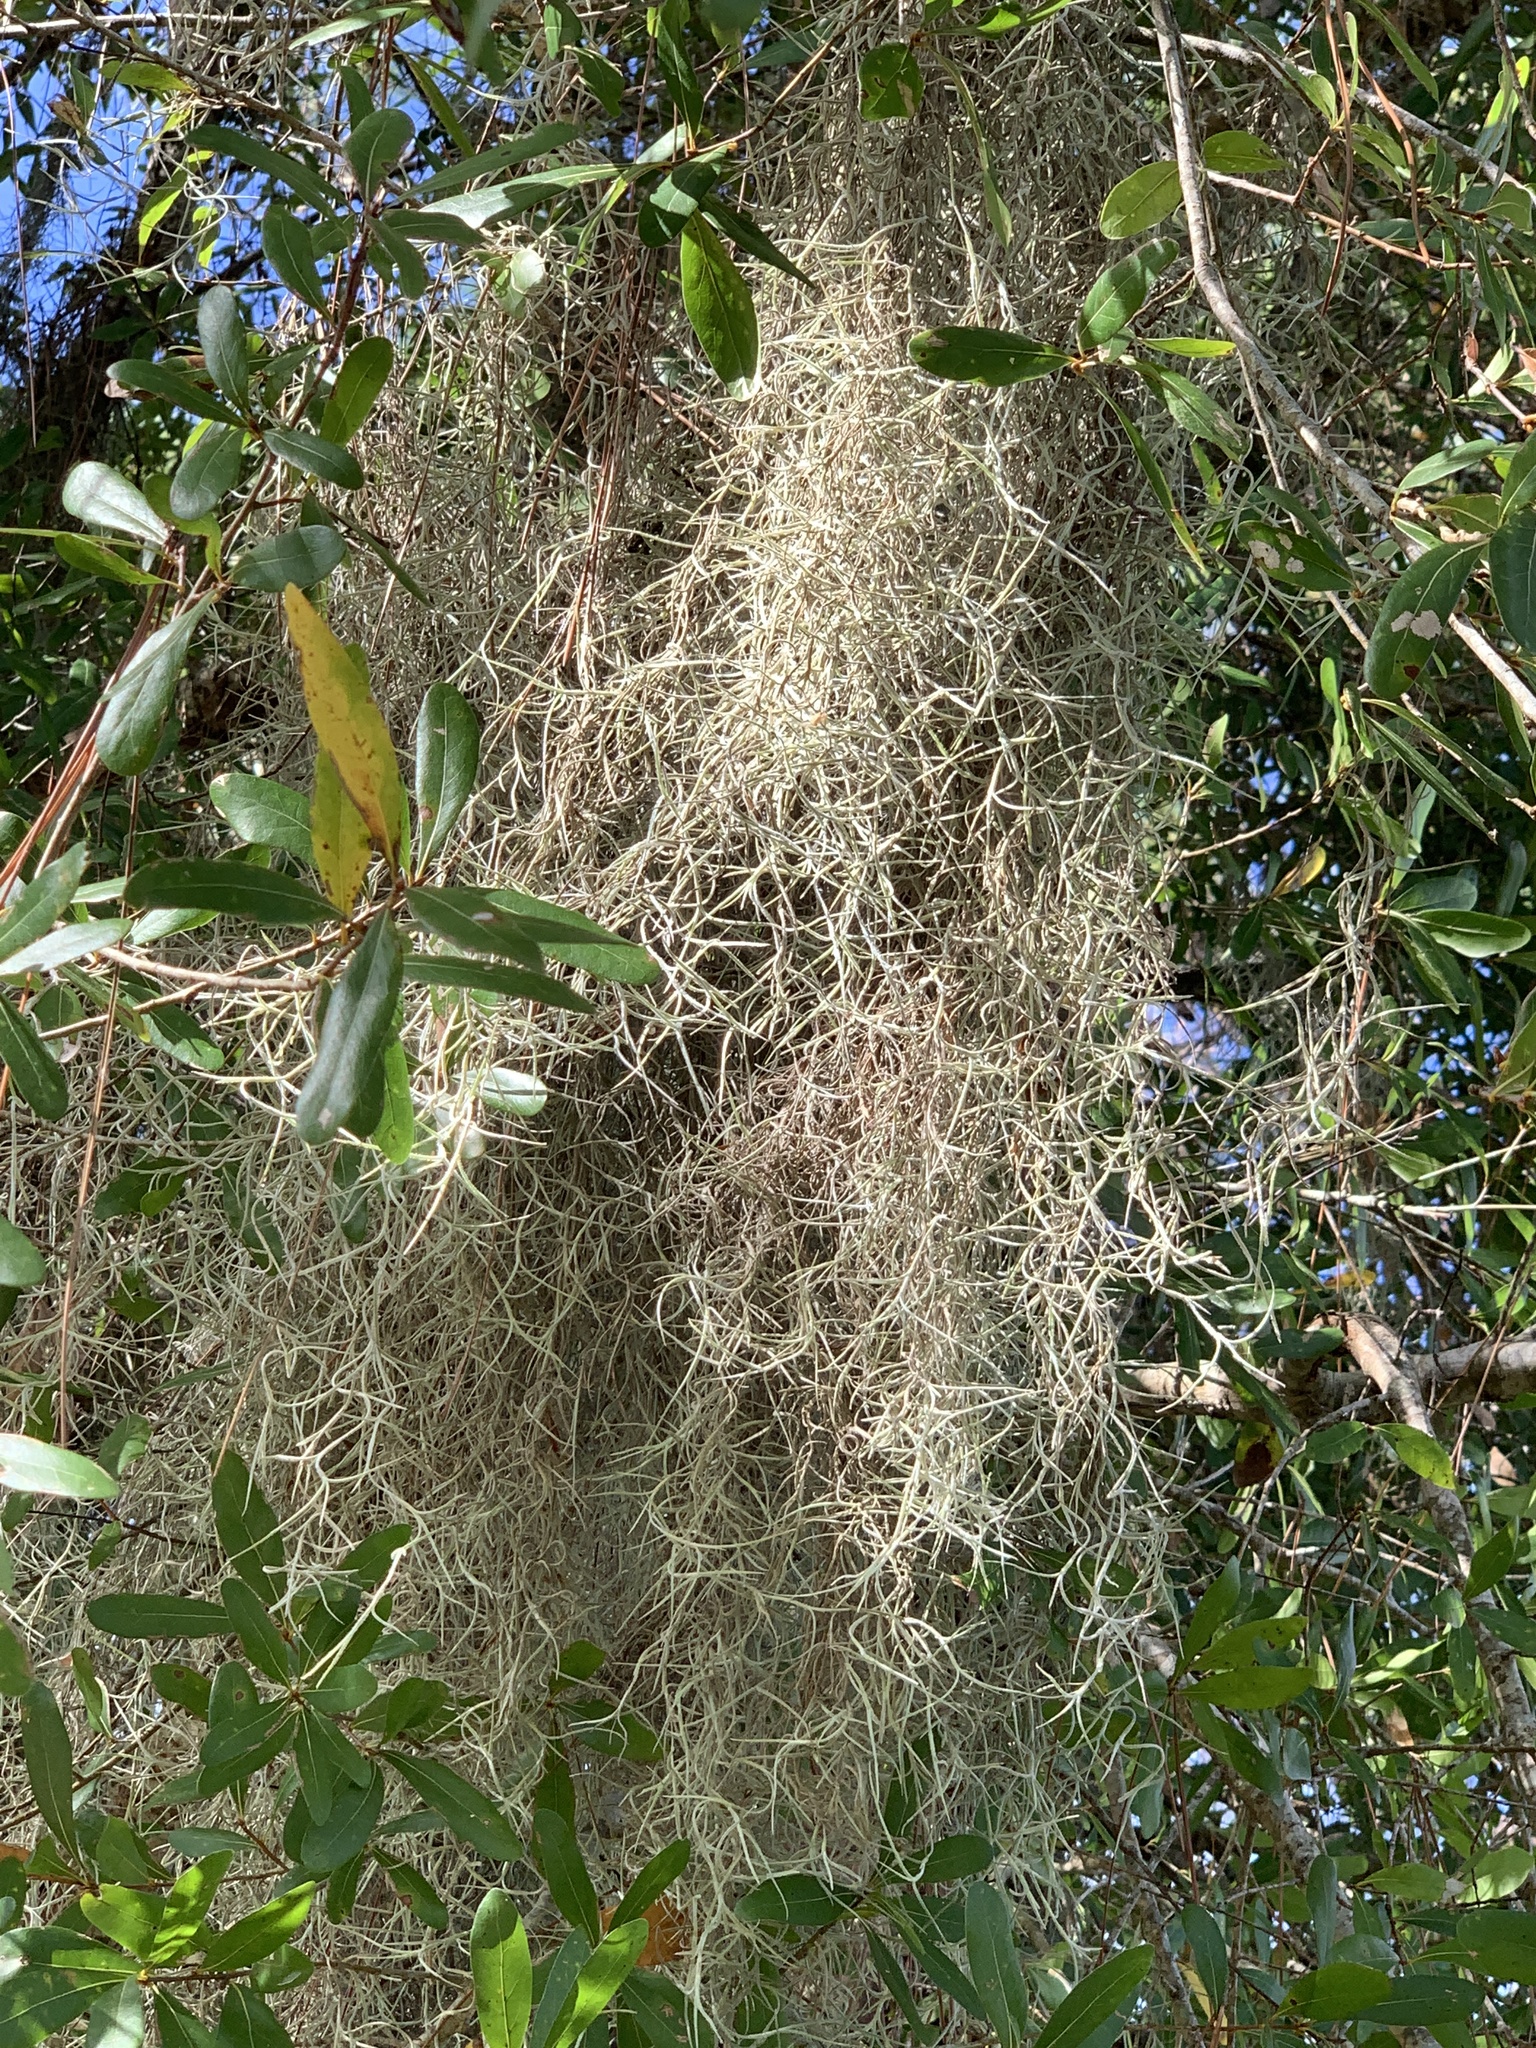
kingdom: Plantae
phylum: Tracheophyta
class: Liliopsida
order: Poales
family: Bromeliaceae
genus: Tillandsia
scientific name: Tillandsia usneoides
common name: Spanish moss
